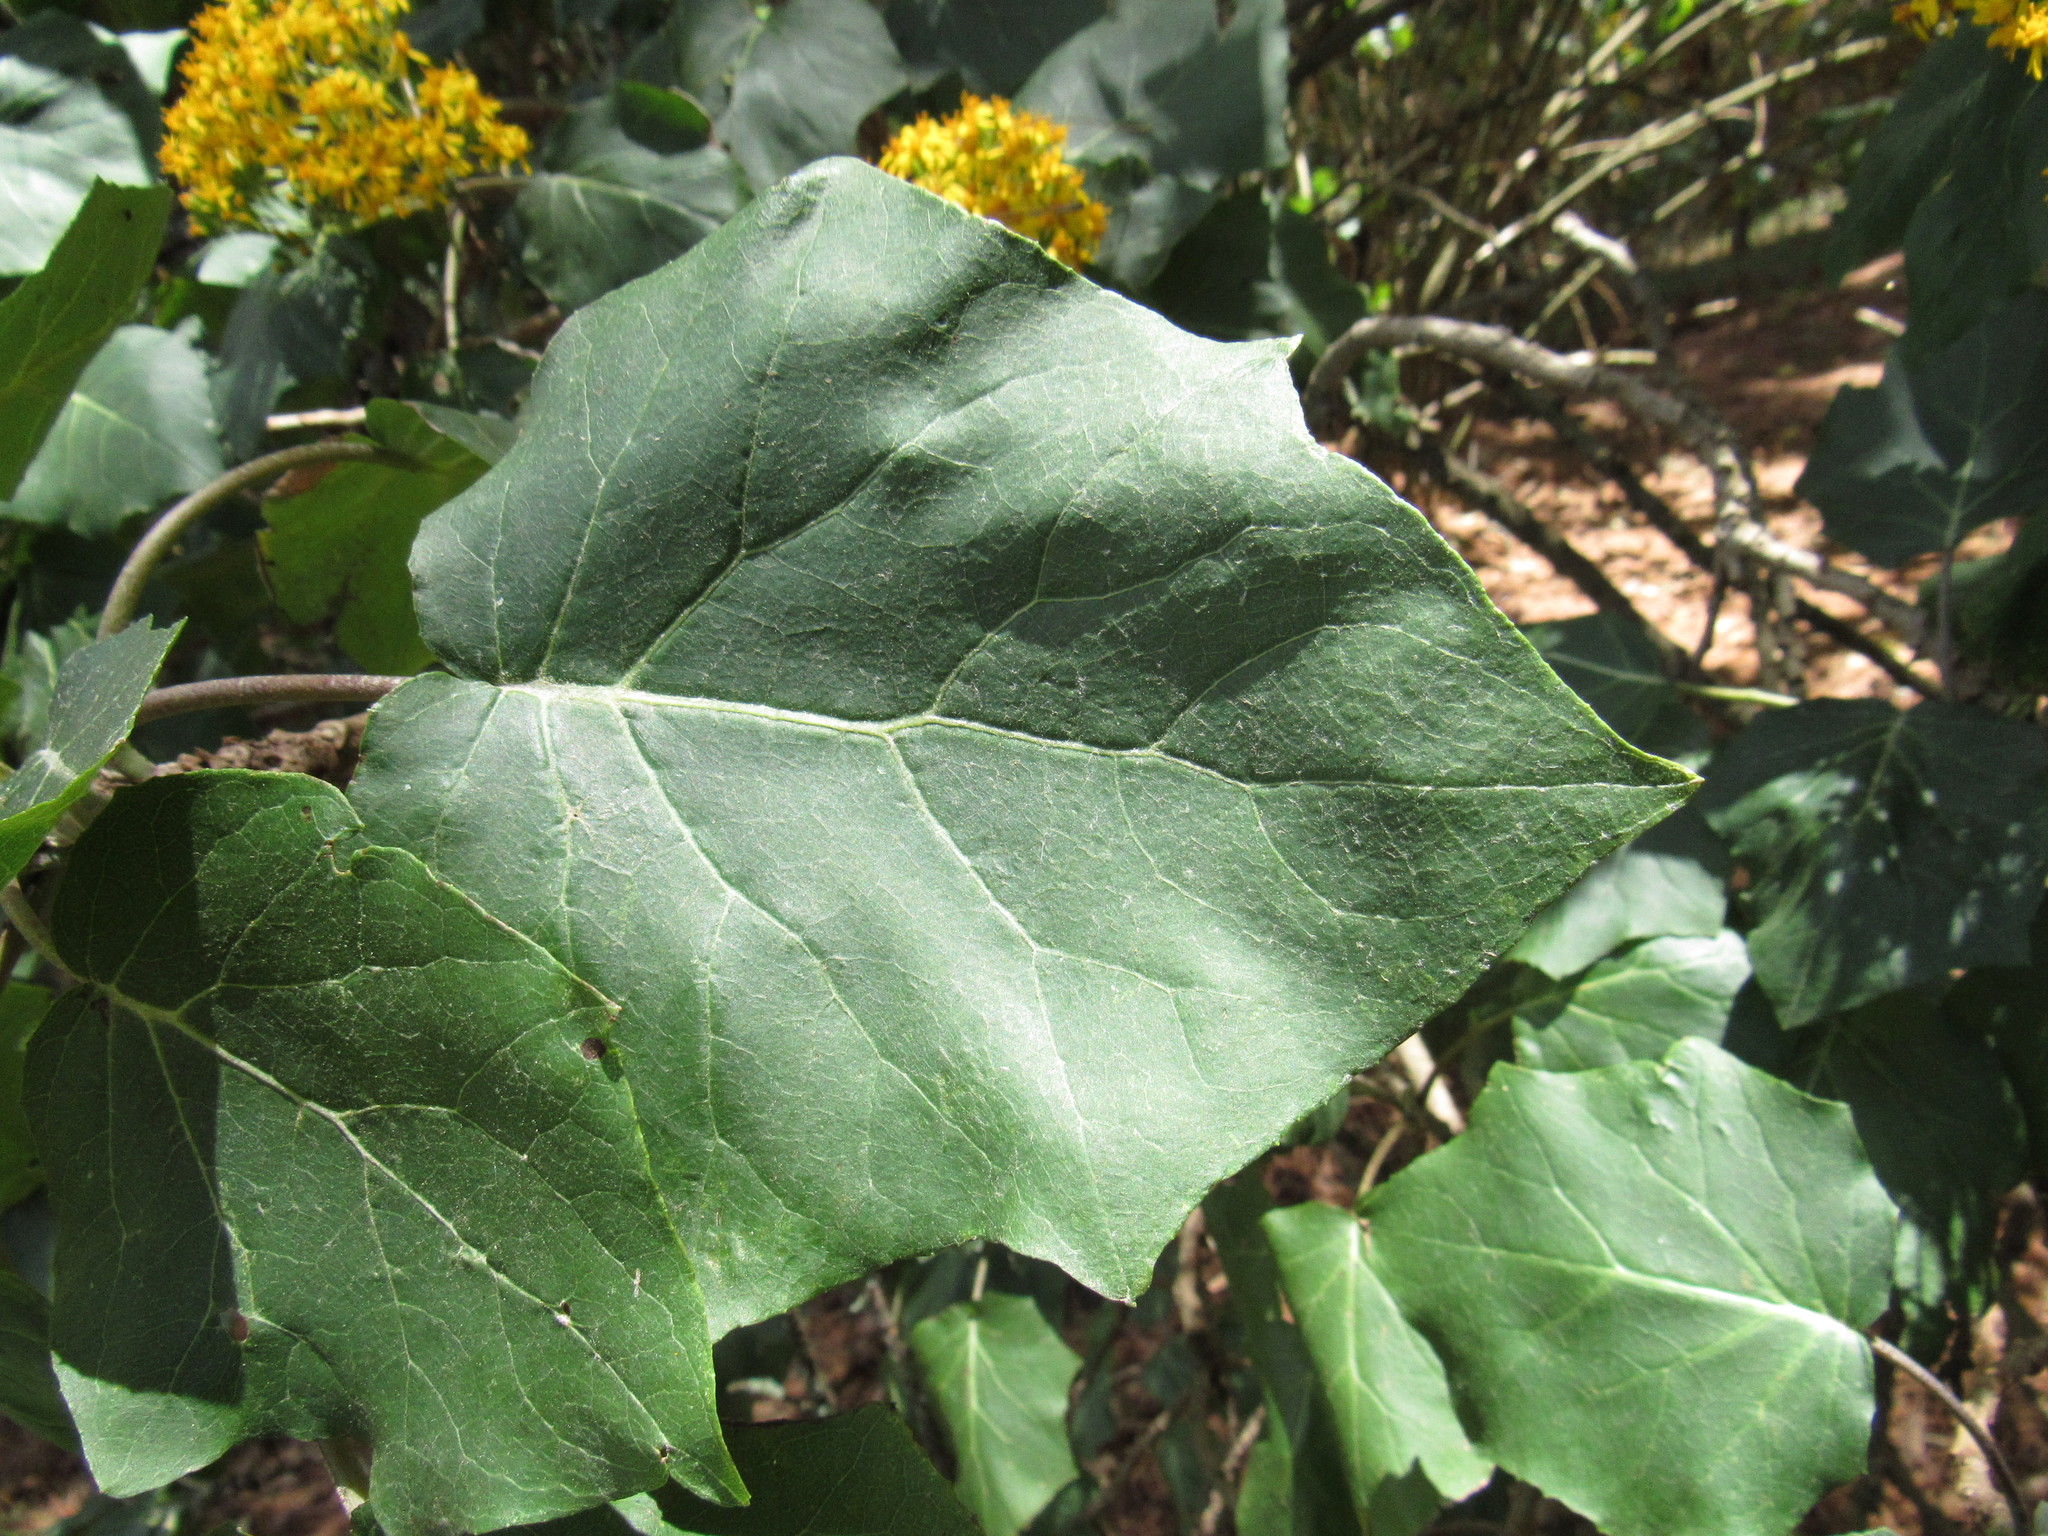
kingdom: Plantae
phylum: Tracheophyta
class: Magnoliopsida
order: Asterales
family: Asteraceae
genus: Roldana
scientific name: Roldana albonervia
